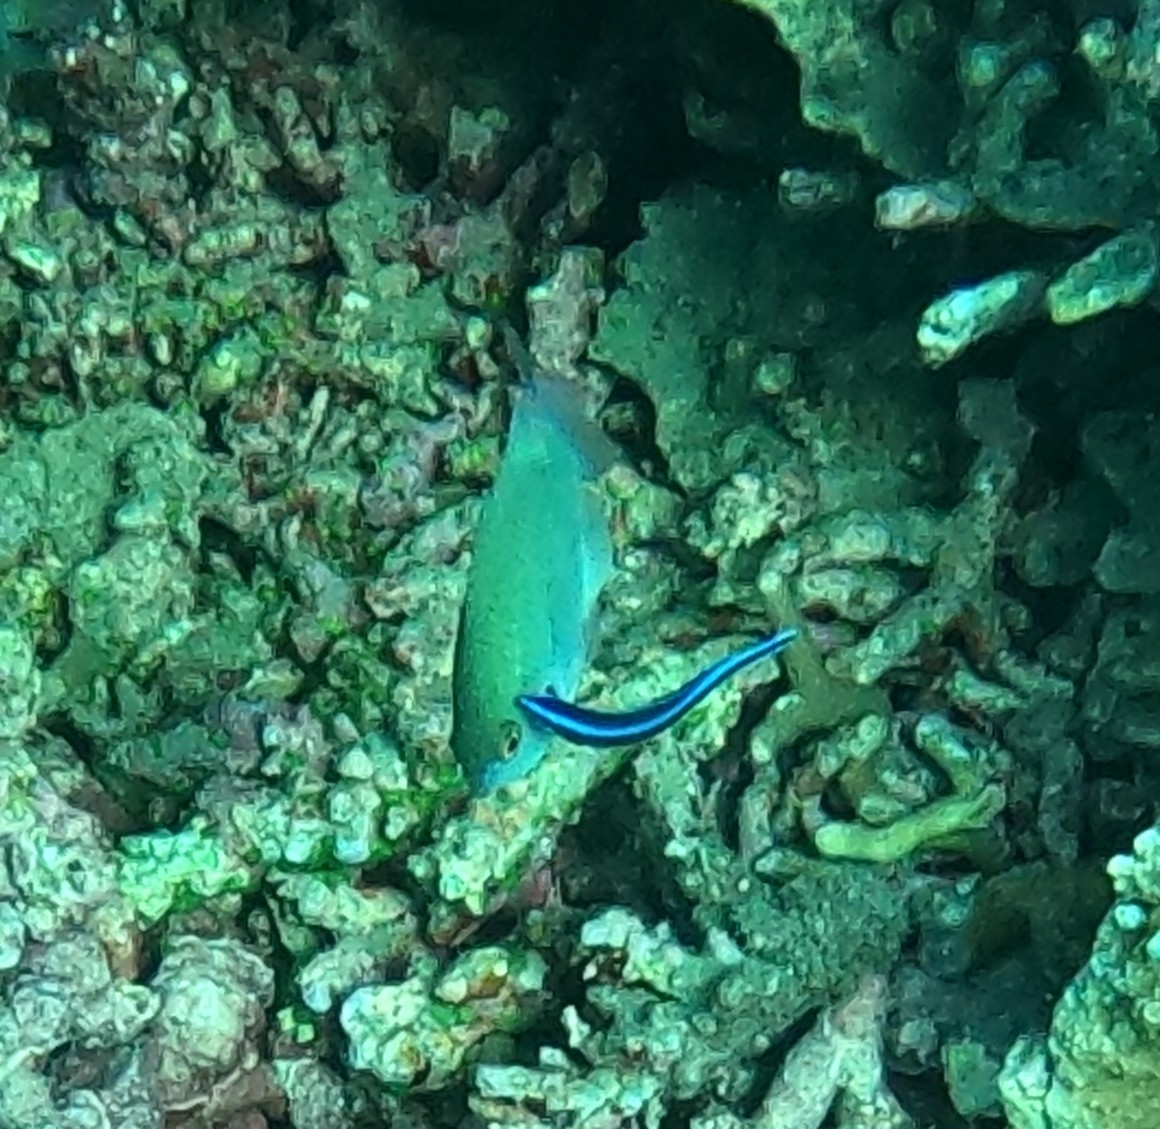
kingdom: Animalia
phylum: Chordata
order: Perciformes
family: Labridae
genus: Labroides
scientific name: Labroides dimidiatus
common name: Blue diesel wrasse
